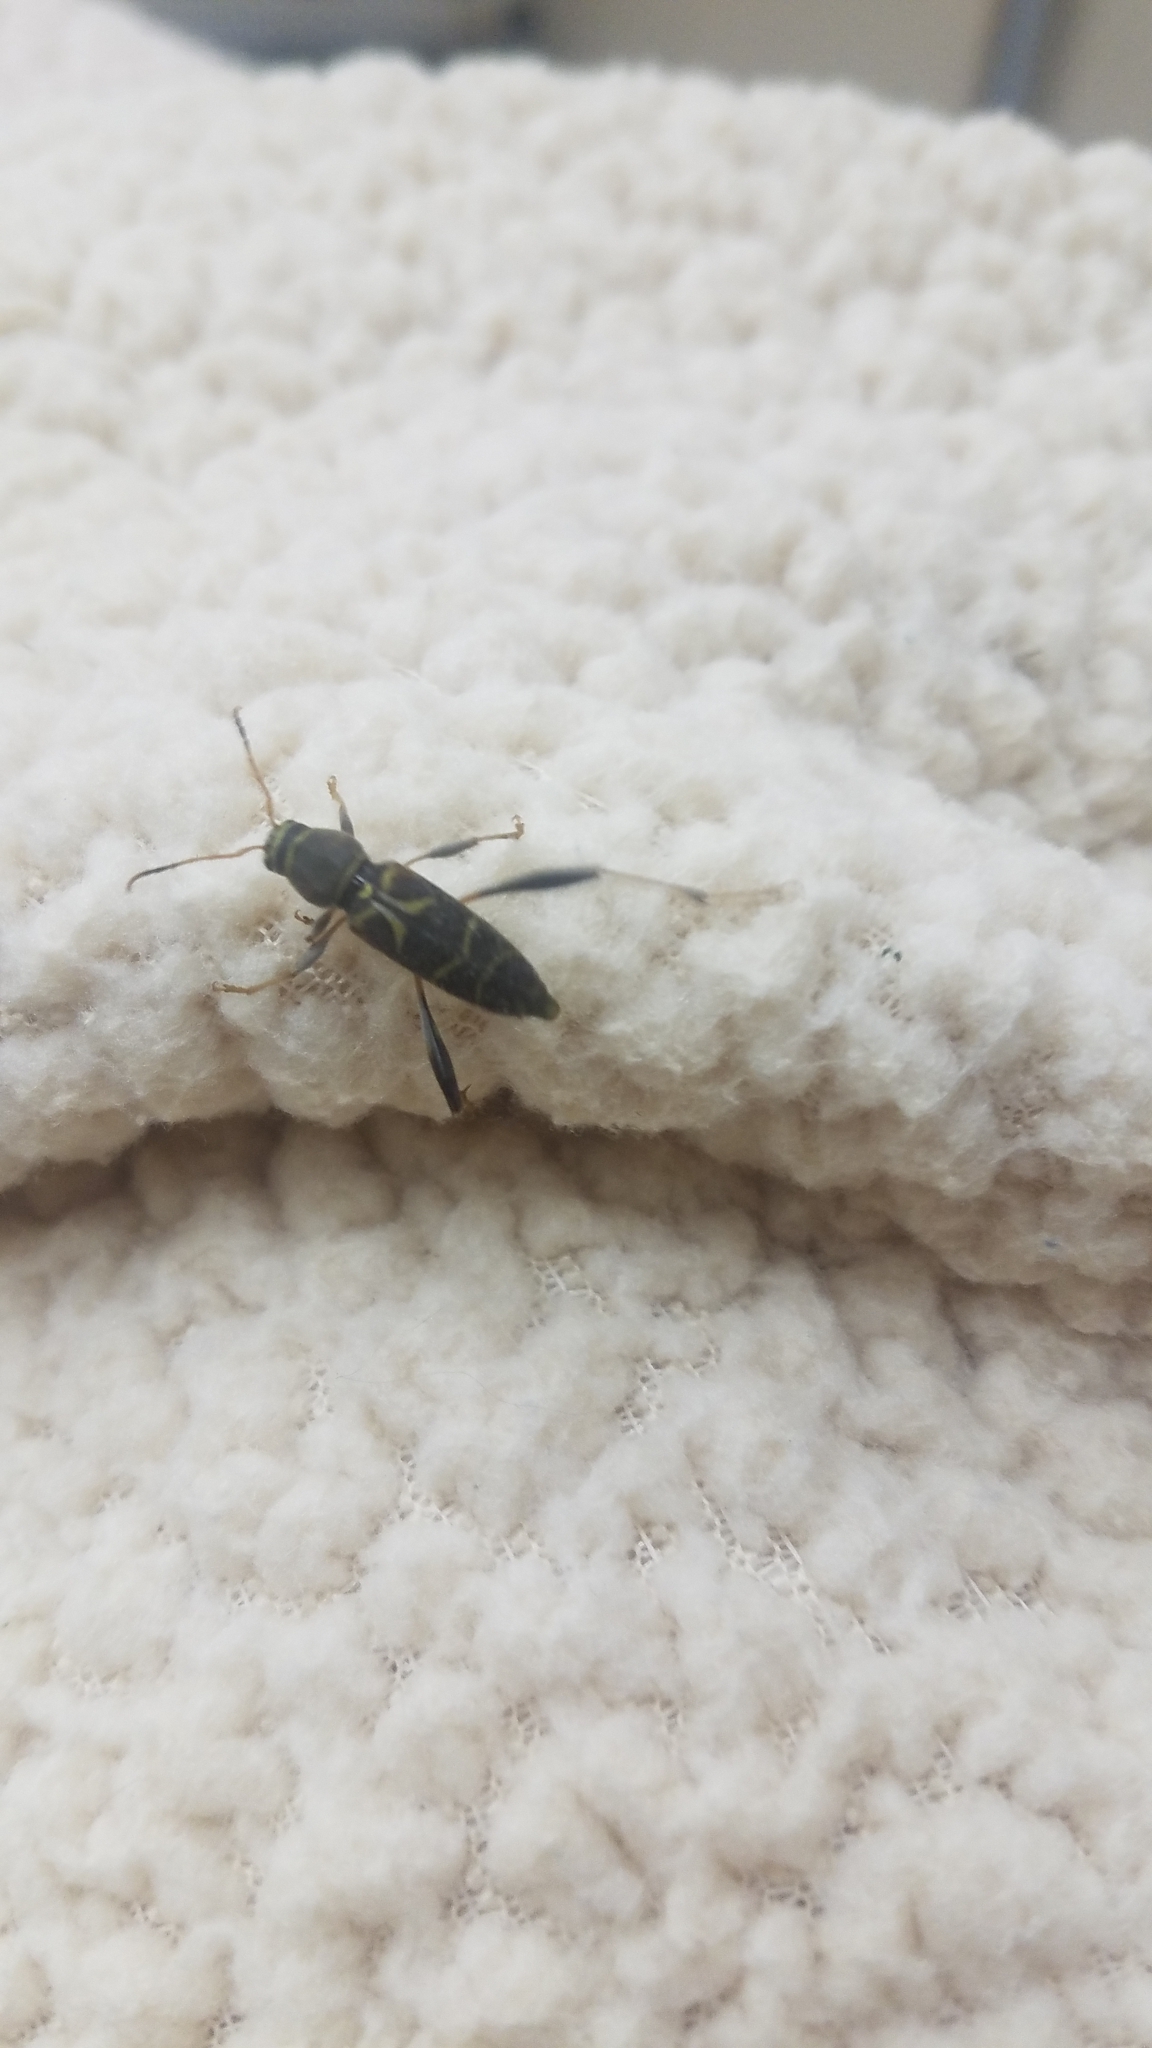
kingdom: Animalia
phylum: Arthropoda
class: Insecta
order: Coleoptera
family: Cerambycidae
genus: Neoclytus
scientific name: Neoclytus mucronatus
